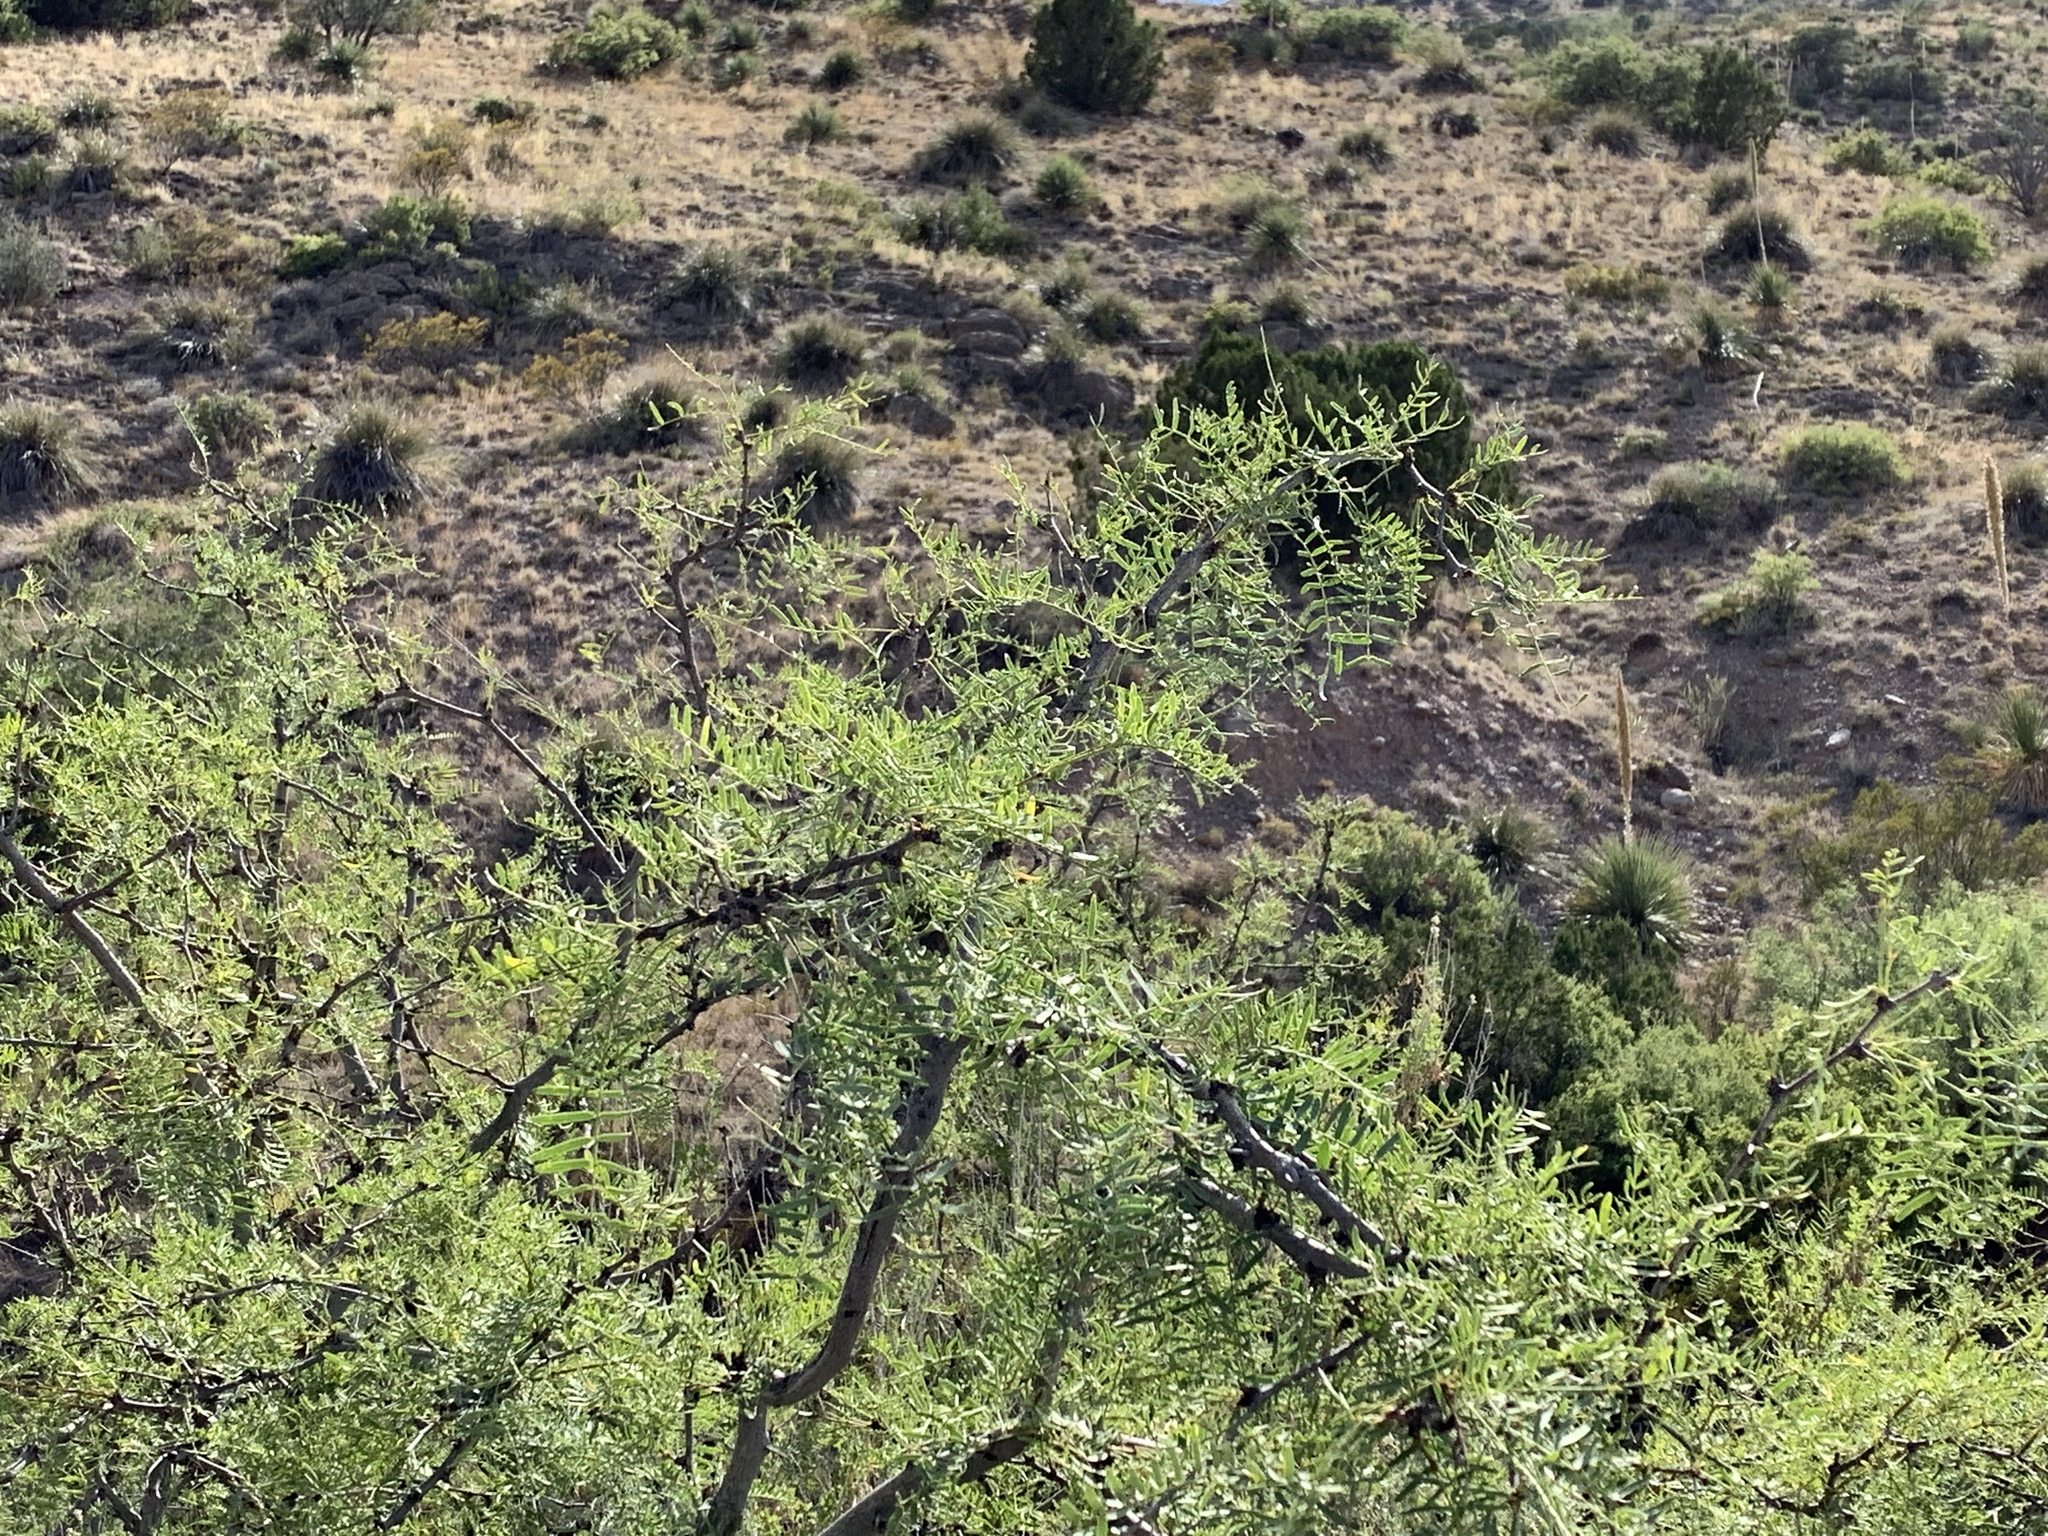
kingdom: Plantae
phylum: Tracheophyta
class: Magnoliopsida
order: Fabales
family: Fabaceae
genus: Prosopis
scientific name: Prosopis glandulosa
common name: Honey mesquite
